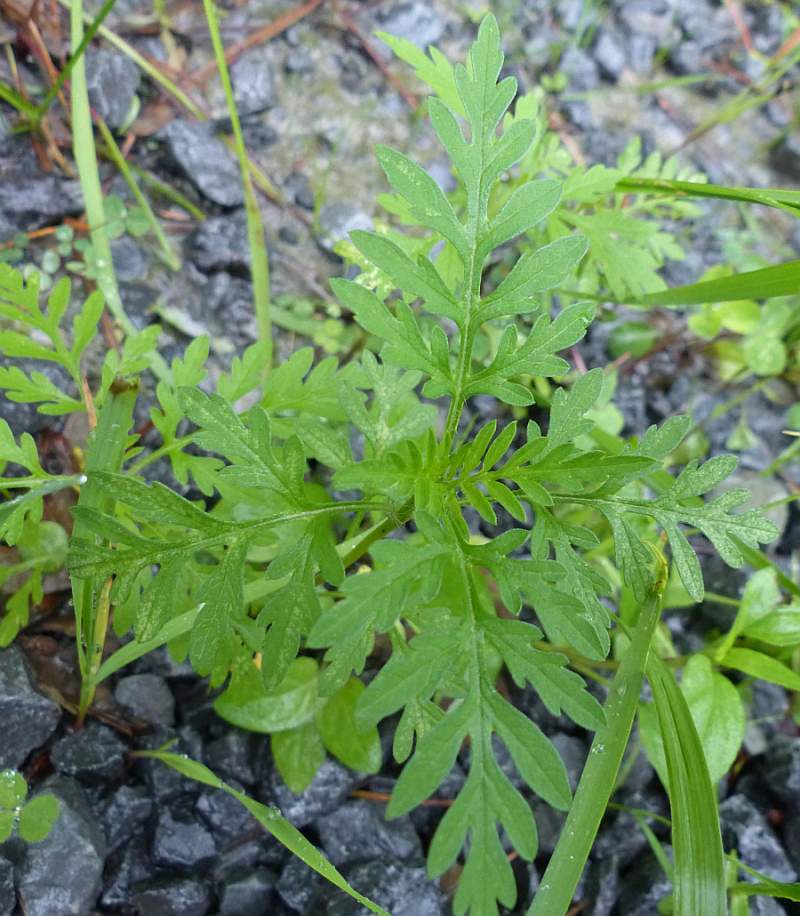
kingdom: Plantae
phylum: Tracheophyta
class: Magnoliopsida
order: Asterales
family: Asteraceae
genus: Ambrosia
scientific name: Ambrosia artemisiifolia
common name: Annual ragweed
